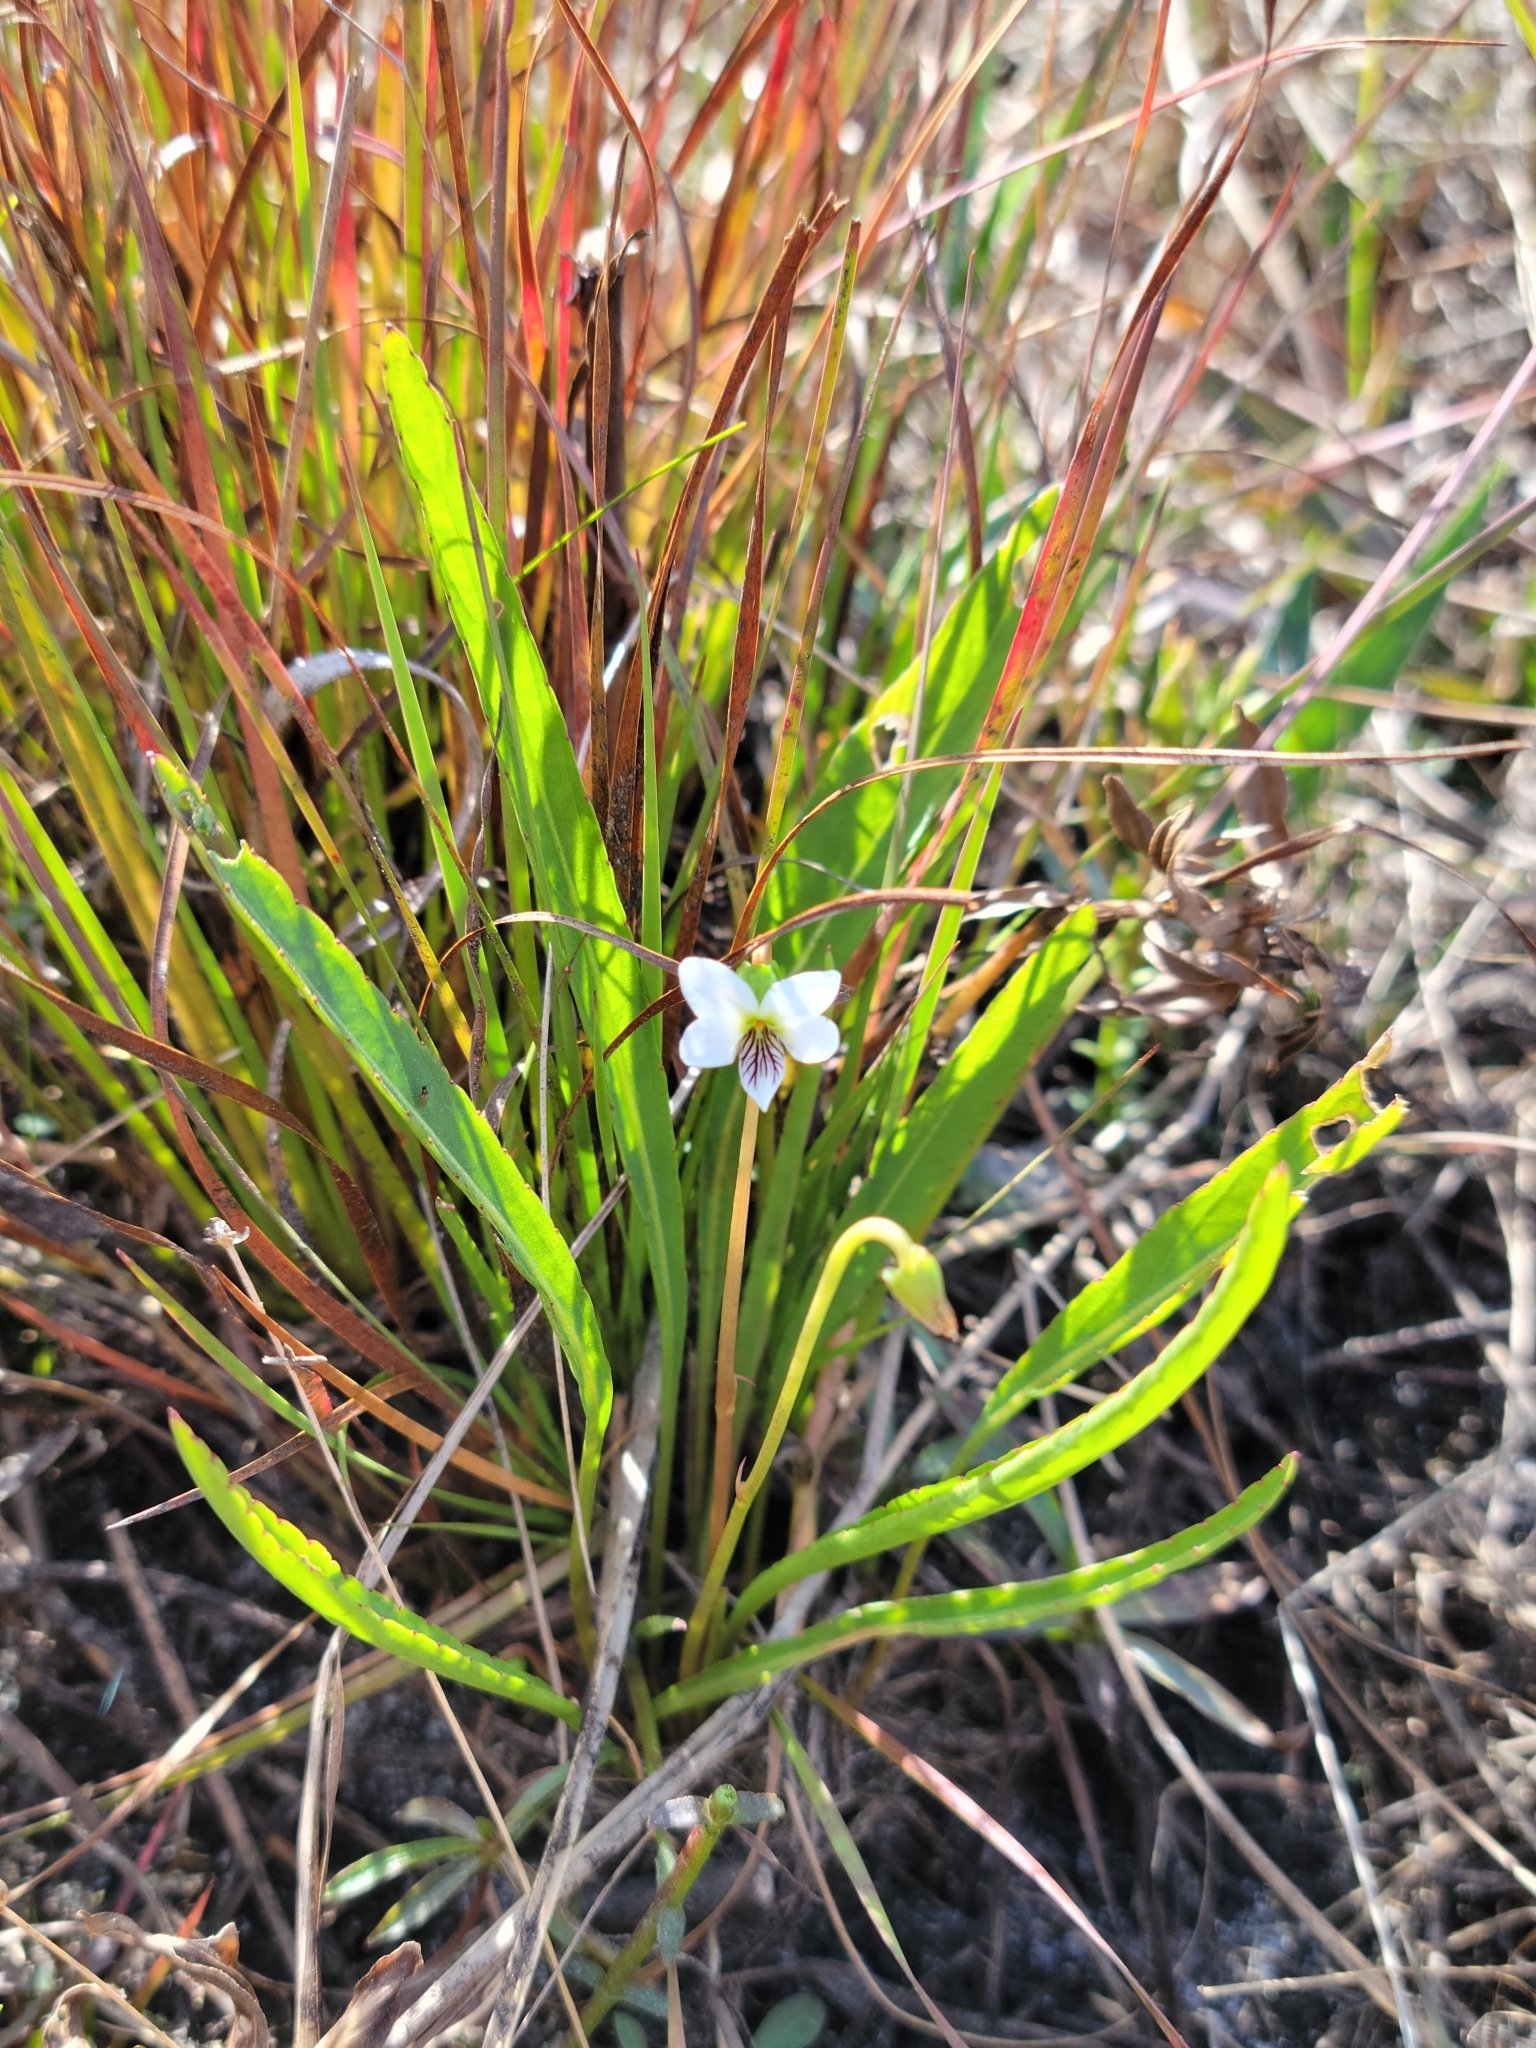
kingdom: Plantae
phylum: Tracheophyta
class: Magnoliopsida
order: Malpighiales
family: Violaceae
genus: Viola
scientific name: Viola lanceolata
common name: Bog white violet
